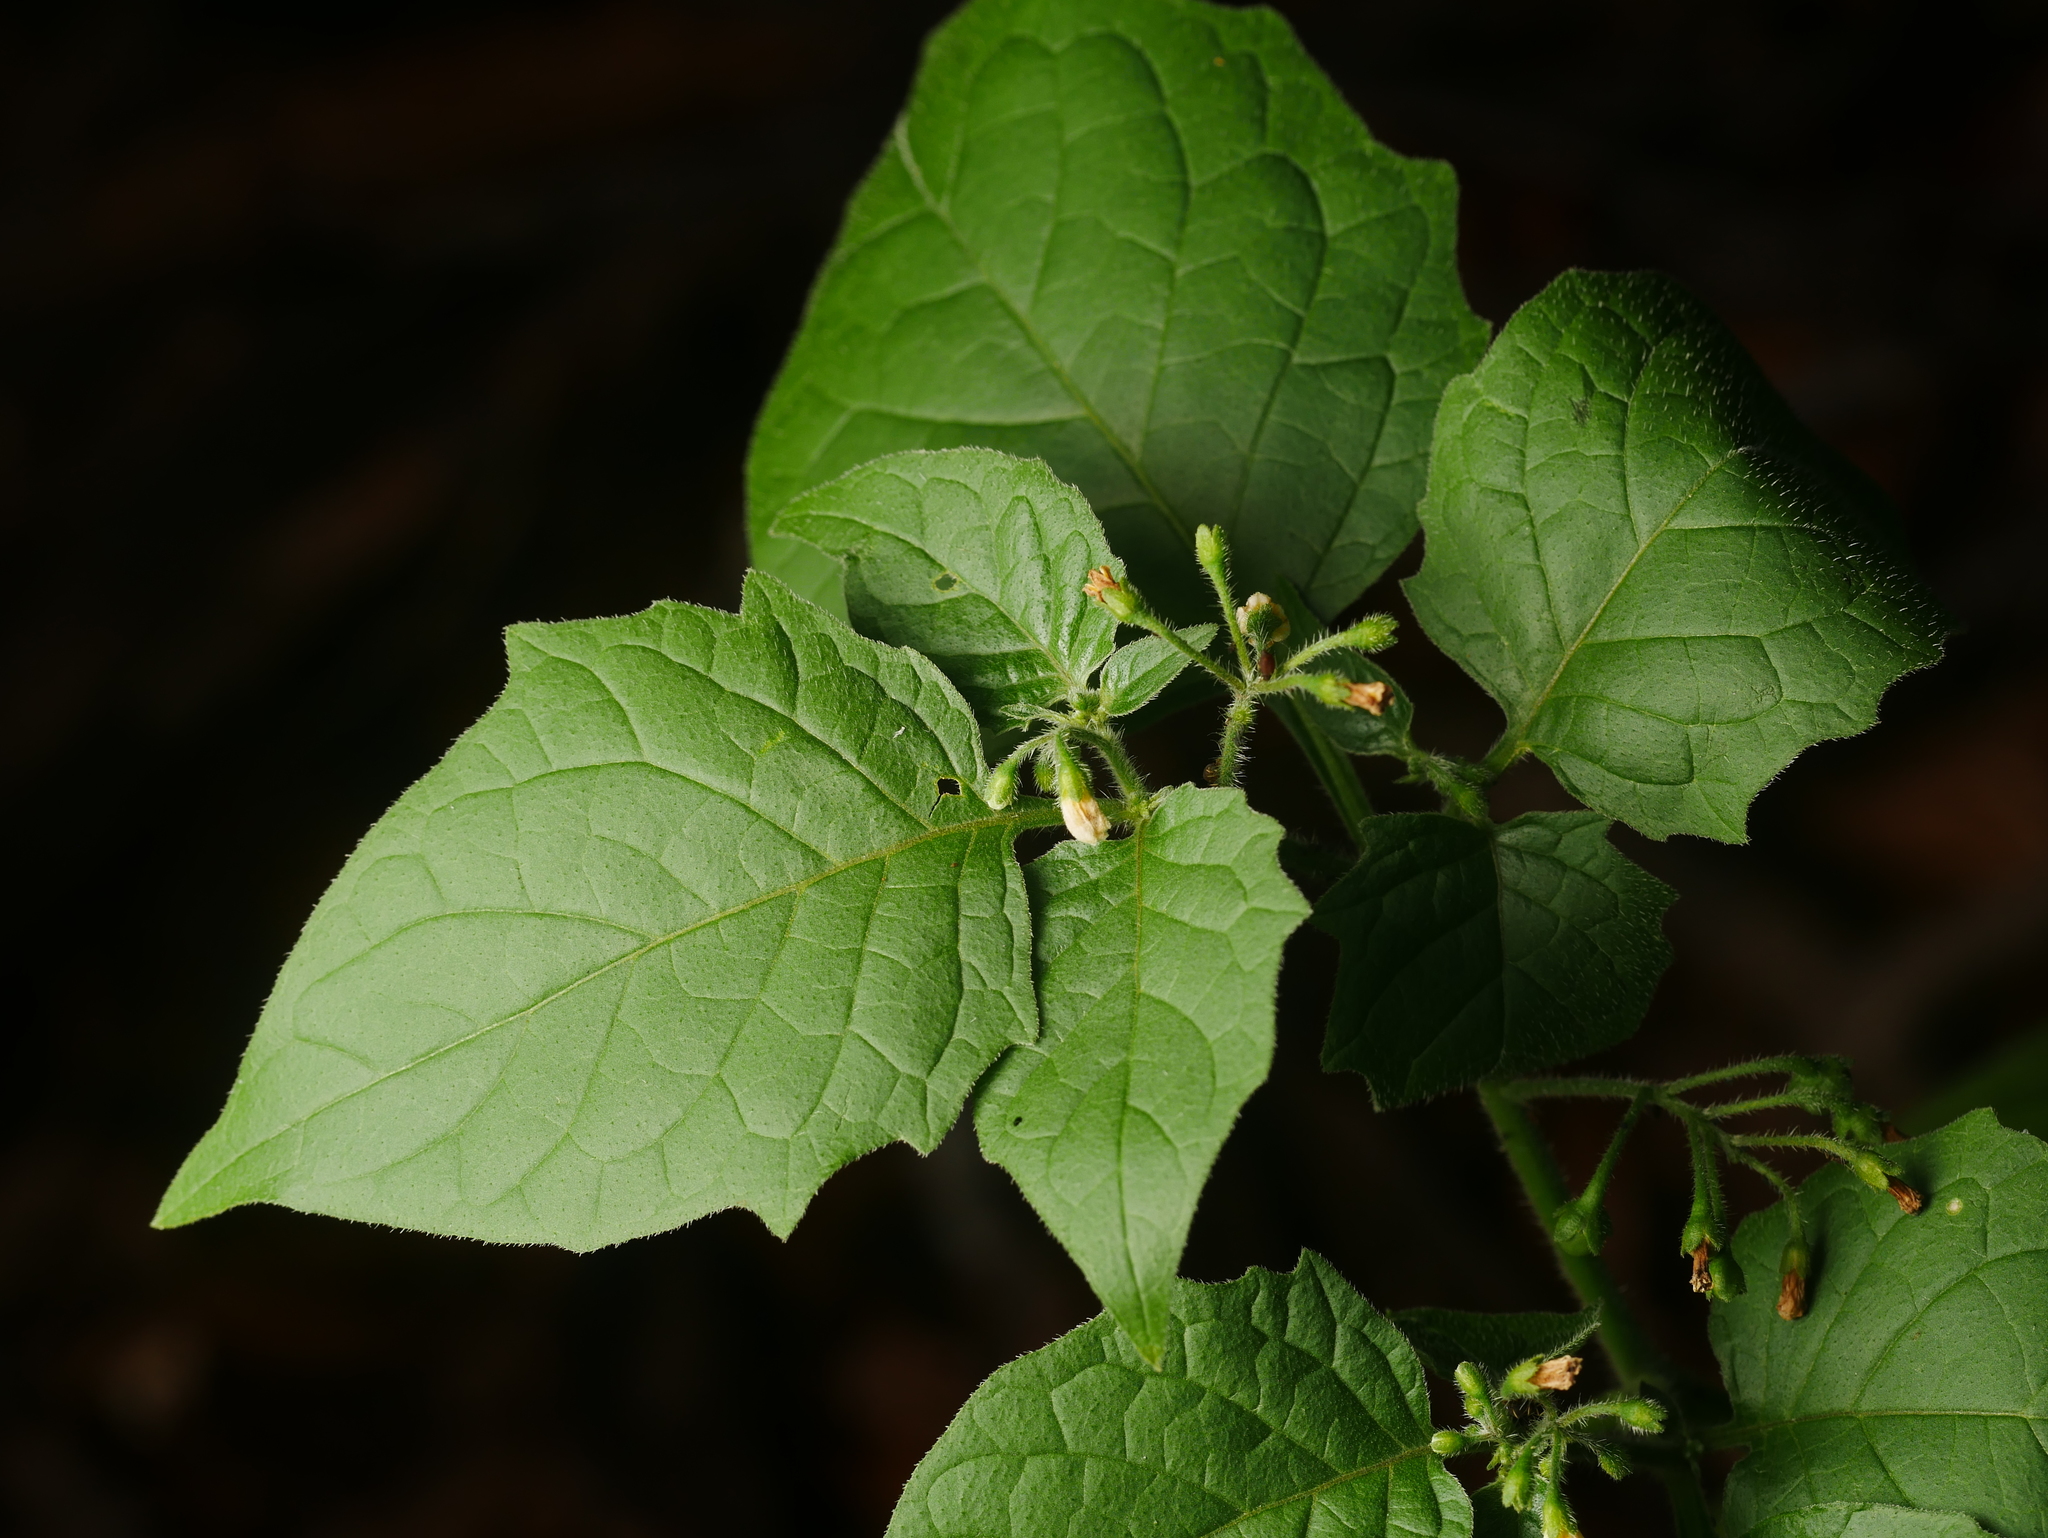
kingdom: Plantae
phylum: Tracheophyta
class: Magnoliopsida
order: Solanales
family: Solanaceae
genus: Solanum
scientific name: Solanum nigrum
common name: Black nightshade
